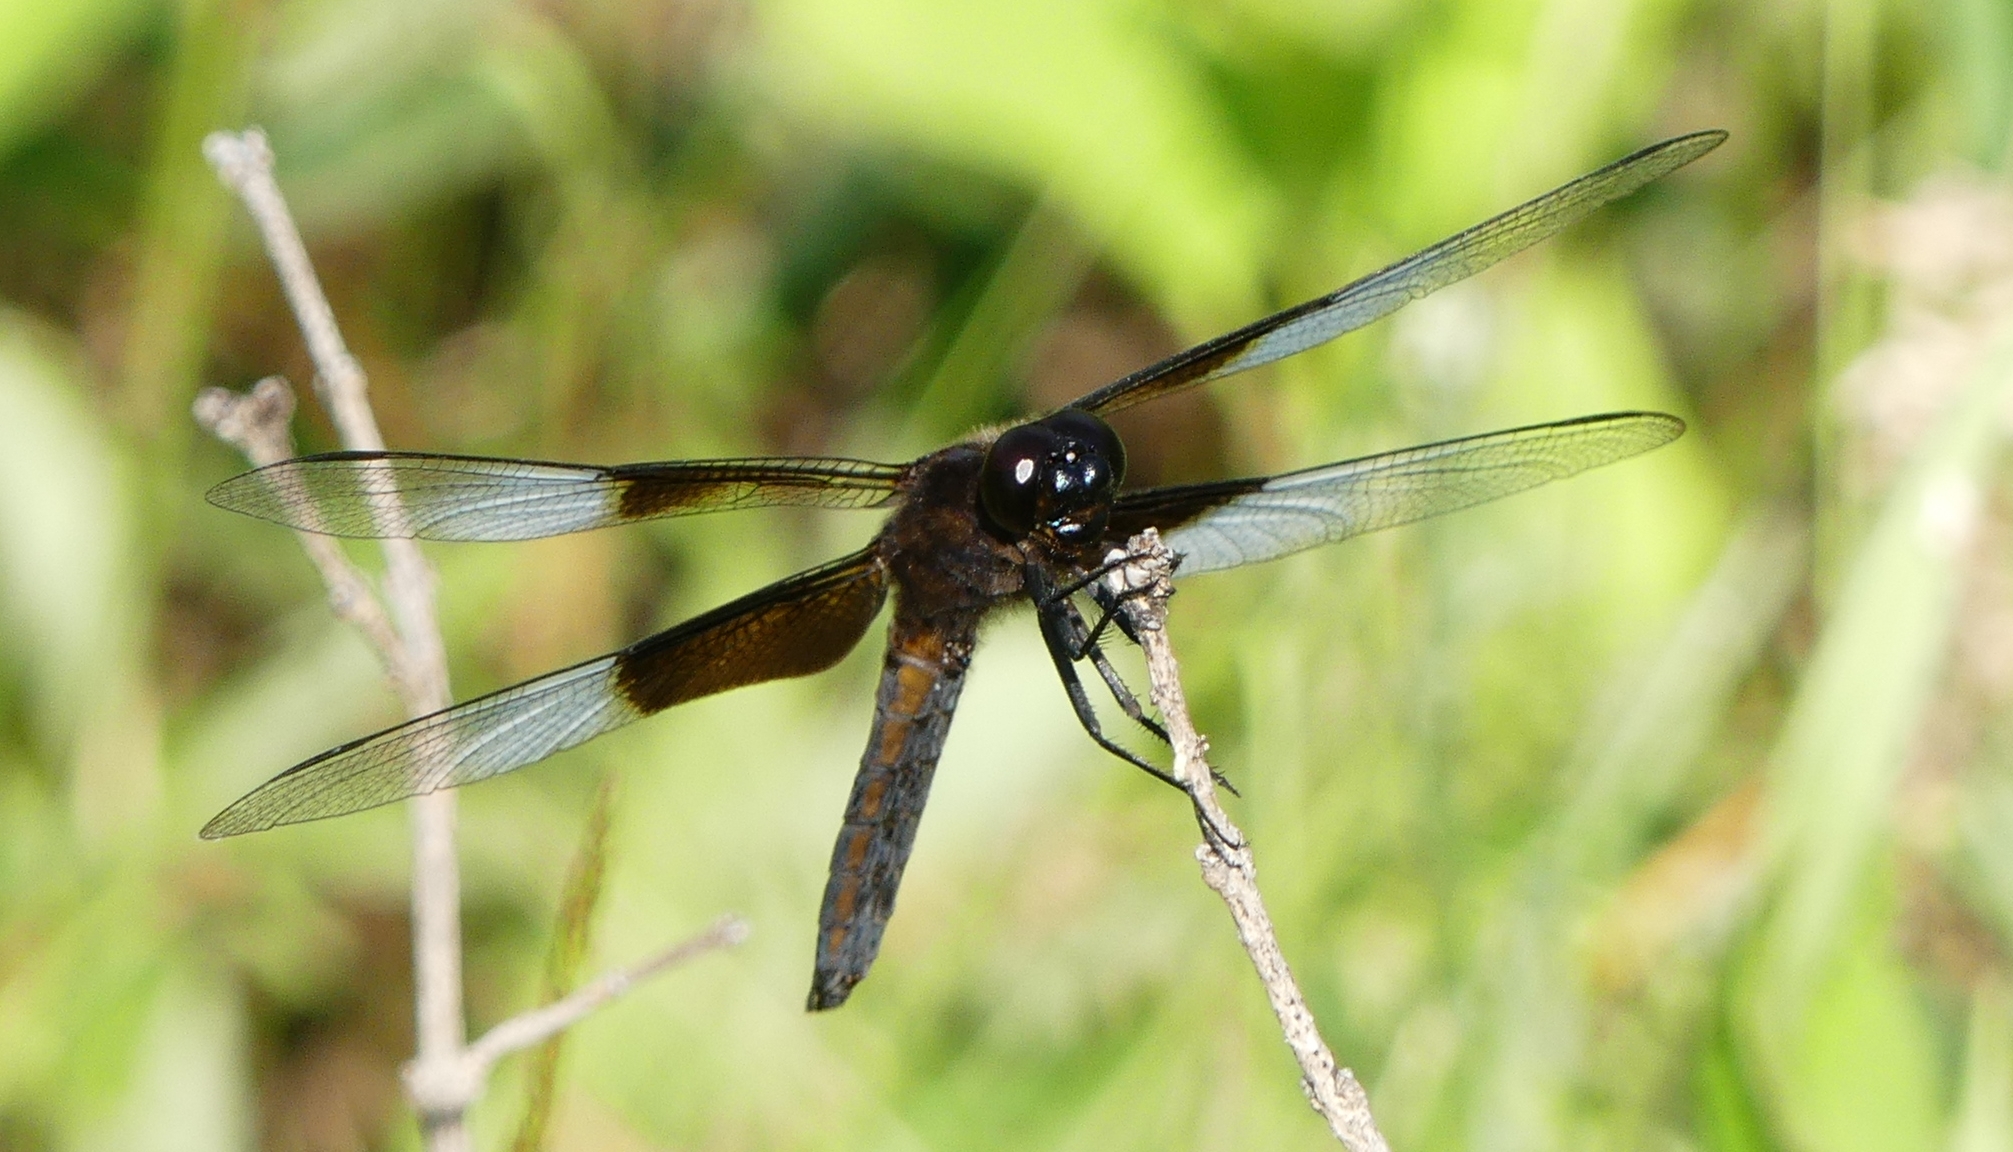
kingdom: Animalia
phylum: Arthropoda
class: Insecta
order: Odonata
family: Libellulidae
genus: Libellula
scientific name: Libellula luctuosa
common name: Widow skimmer
